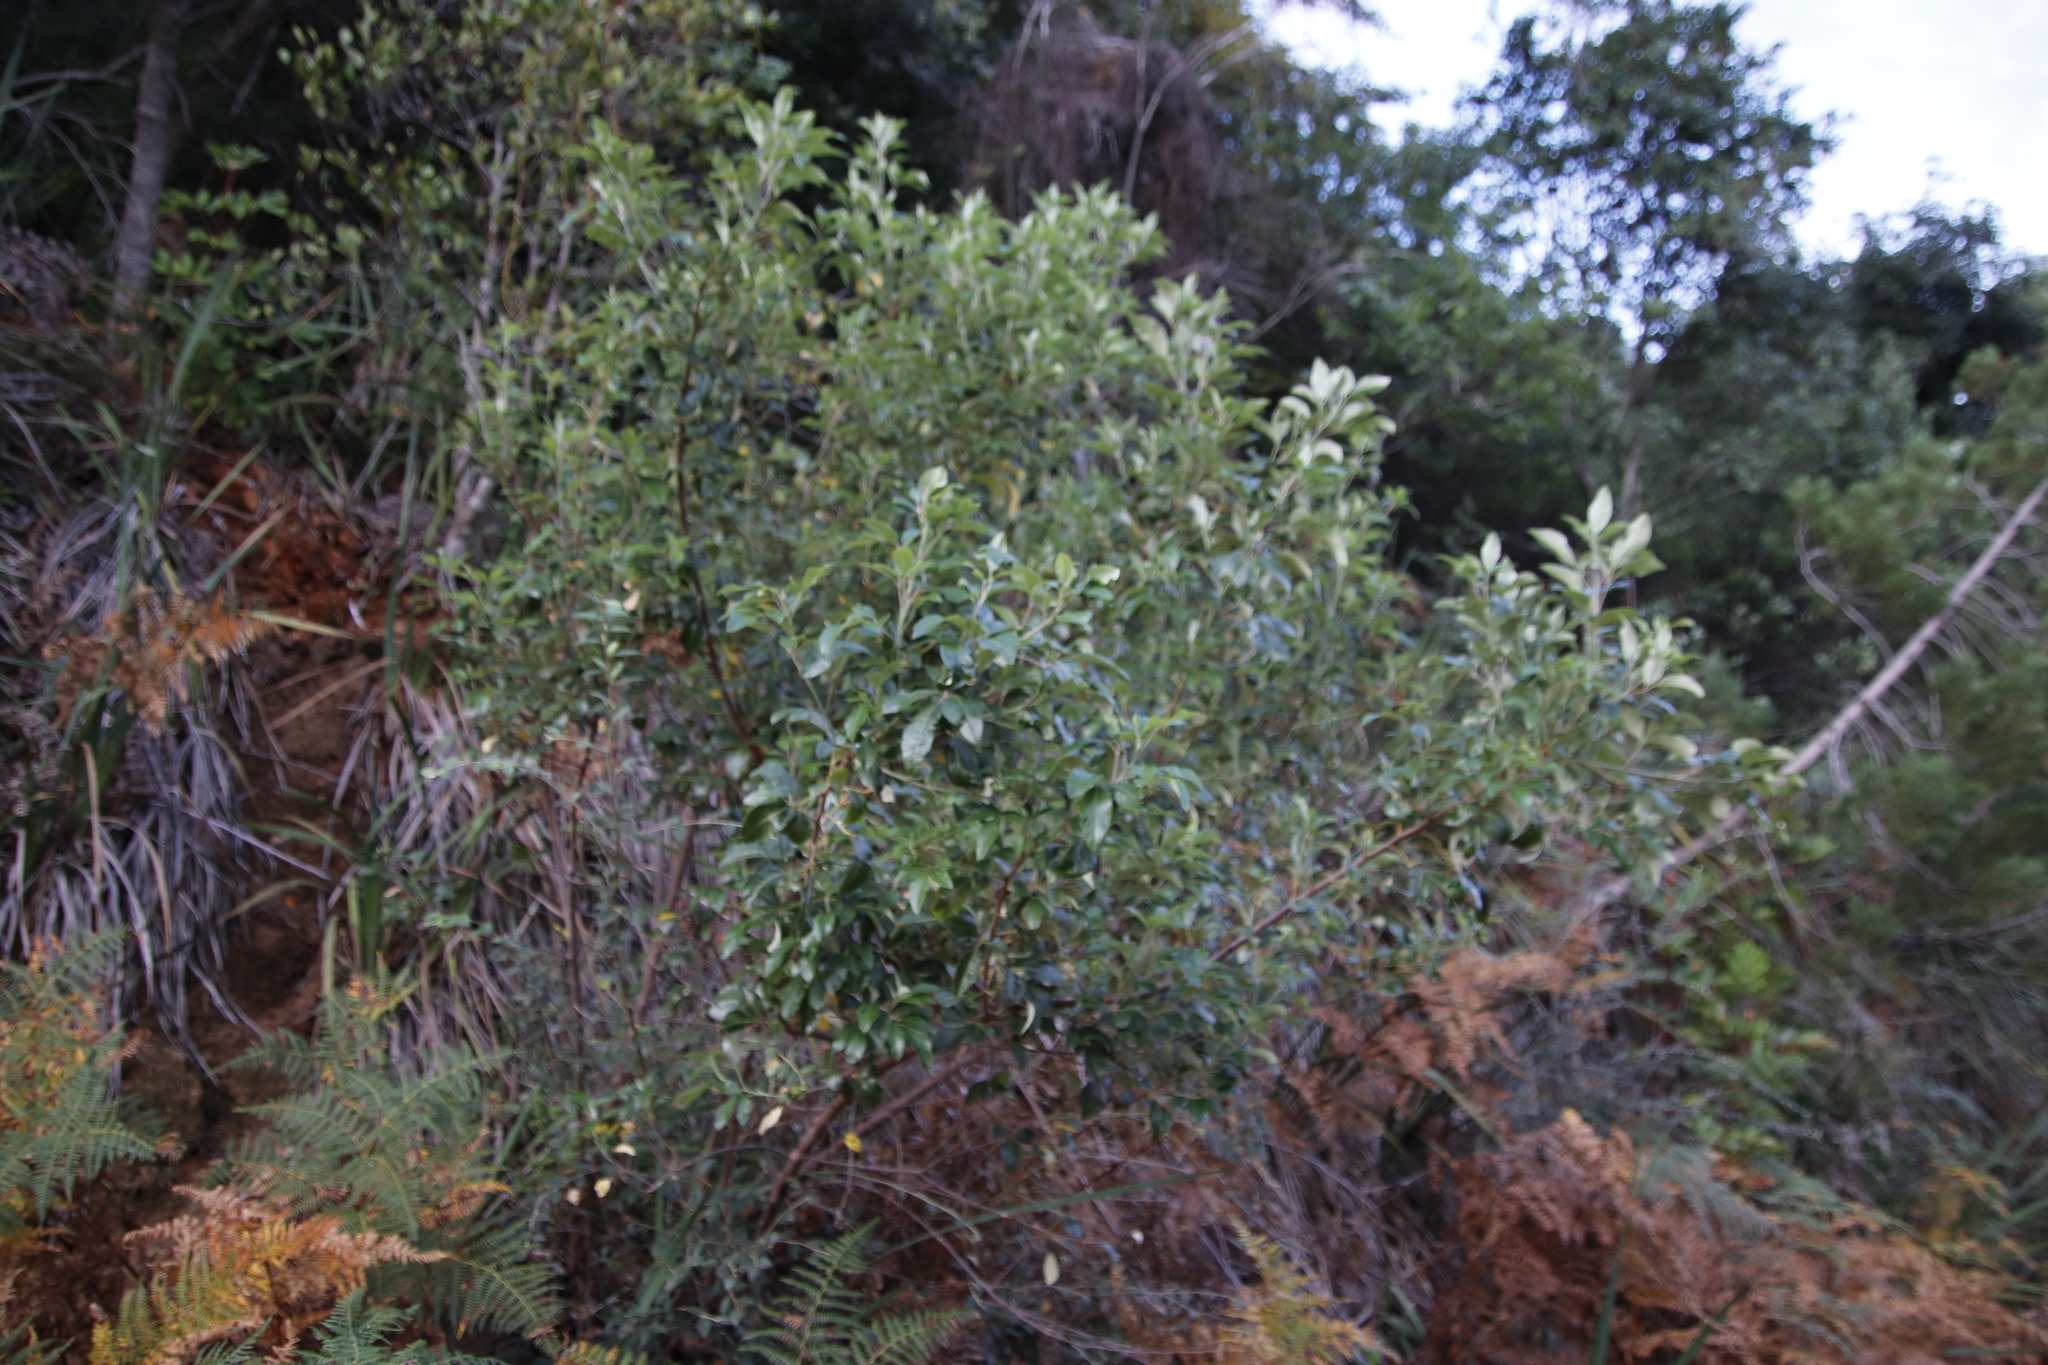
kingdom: Plantae
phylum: Tracheophyta
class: Magnoliopsida
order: Sapindales
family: Anacardiaceae
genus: Searsia
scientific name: Searsia tomentosa
